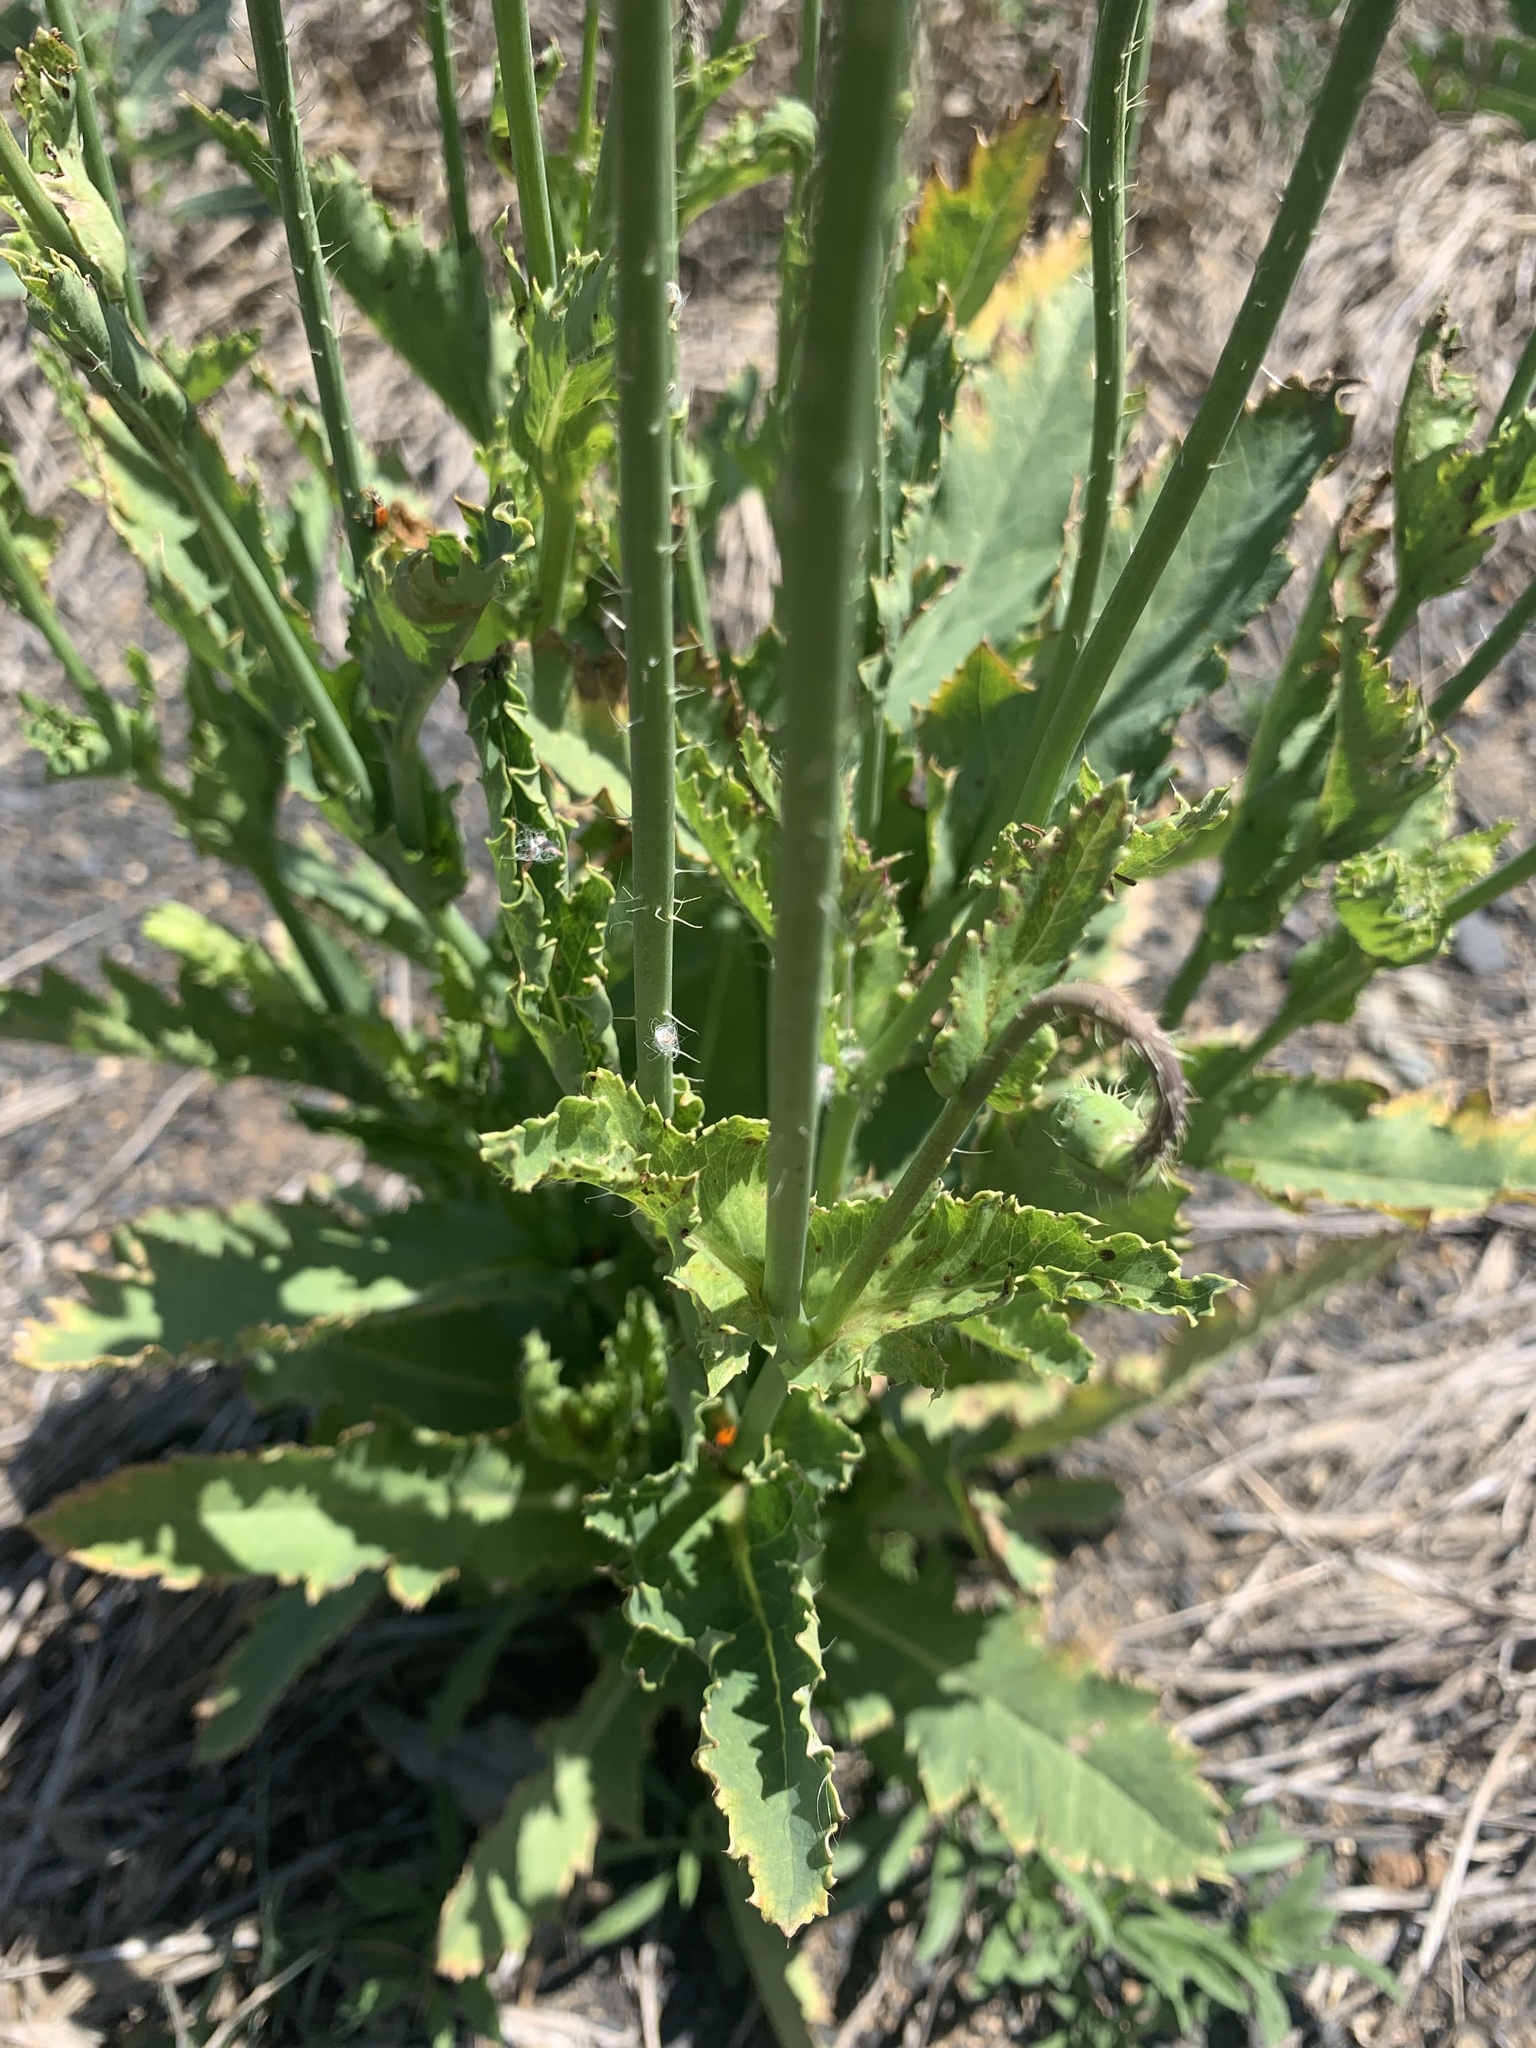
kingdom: Plantae
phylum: Tracheophyta
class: Magnoliopsida
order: Ranunculales
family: Papaveraceae
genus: Papaver
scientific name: Papaver somniferum
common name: Opium poppy
